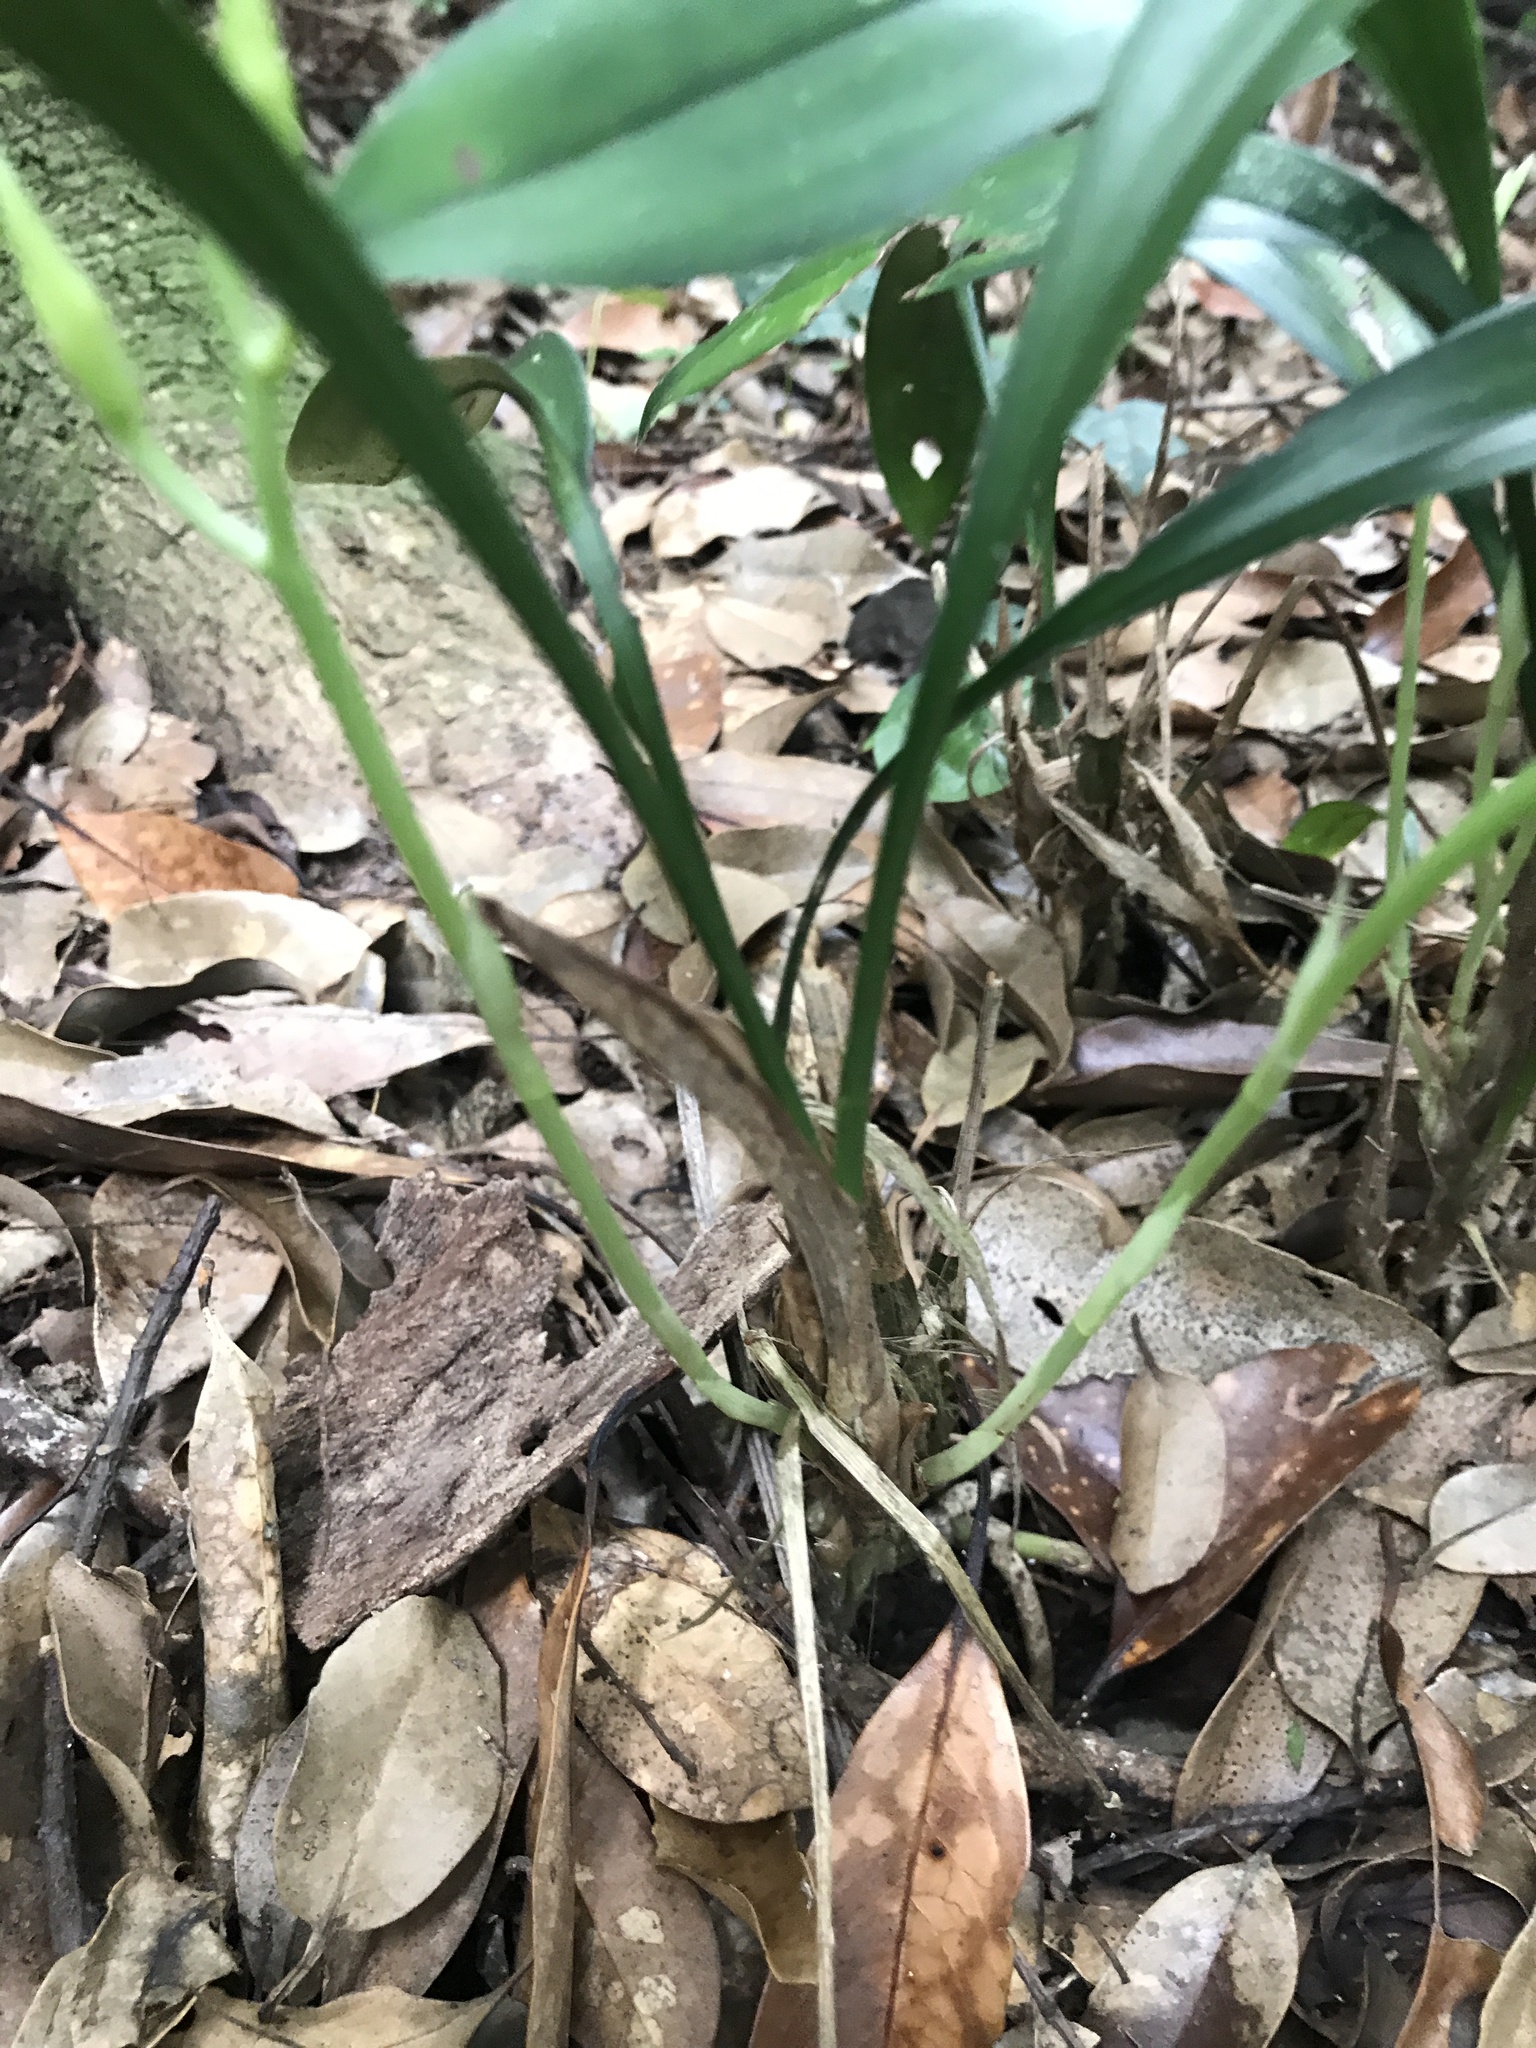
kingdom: Plantae
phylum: Tracheophyta
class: Liliopsida
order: Asparagales
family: Orchidaceae
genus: Cymbidium
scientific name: Cymbidium lancifolium
